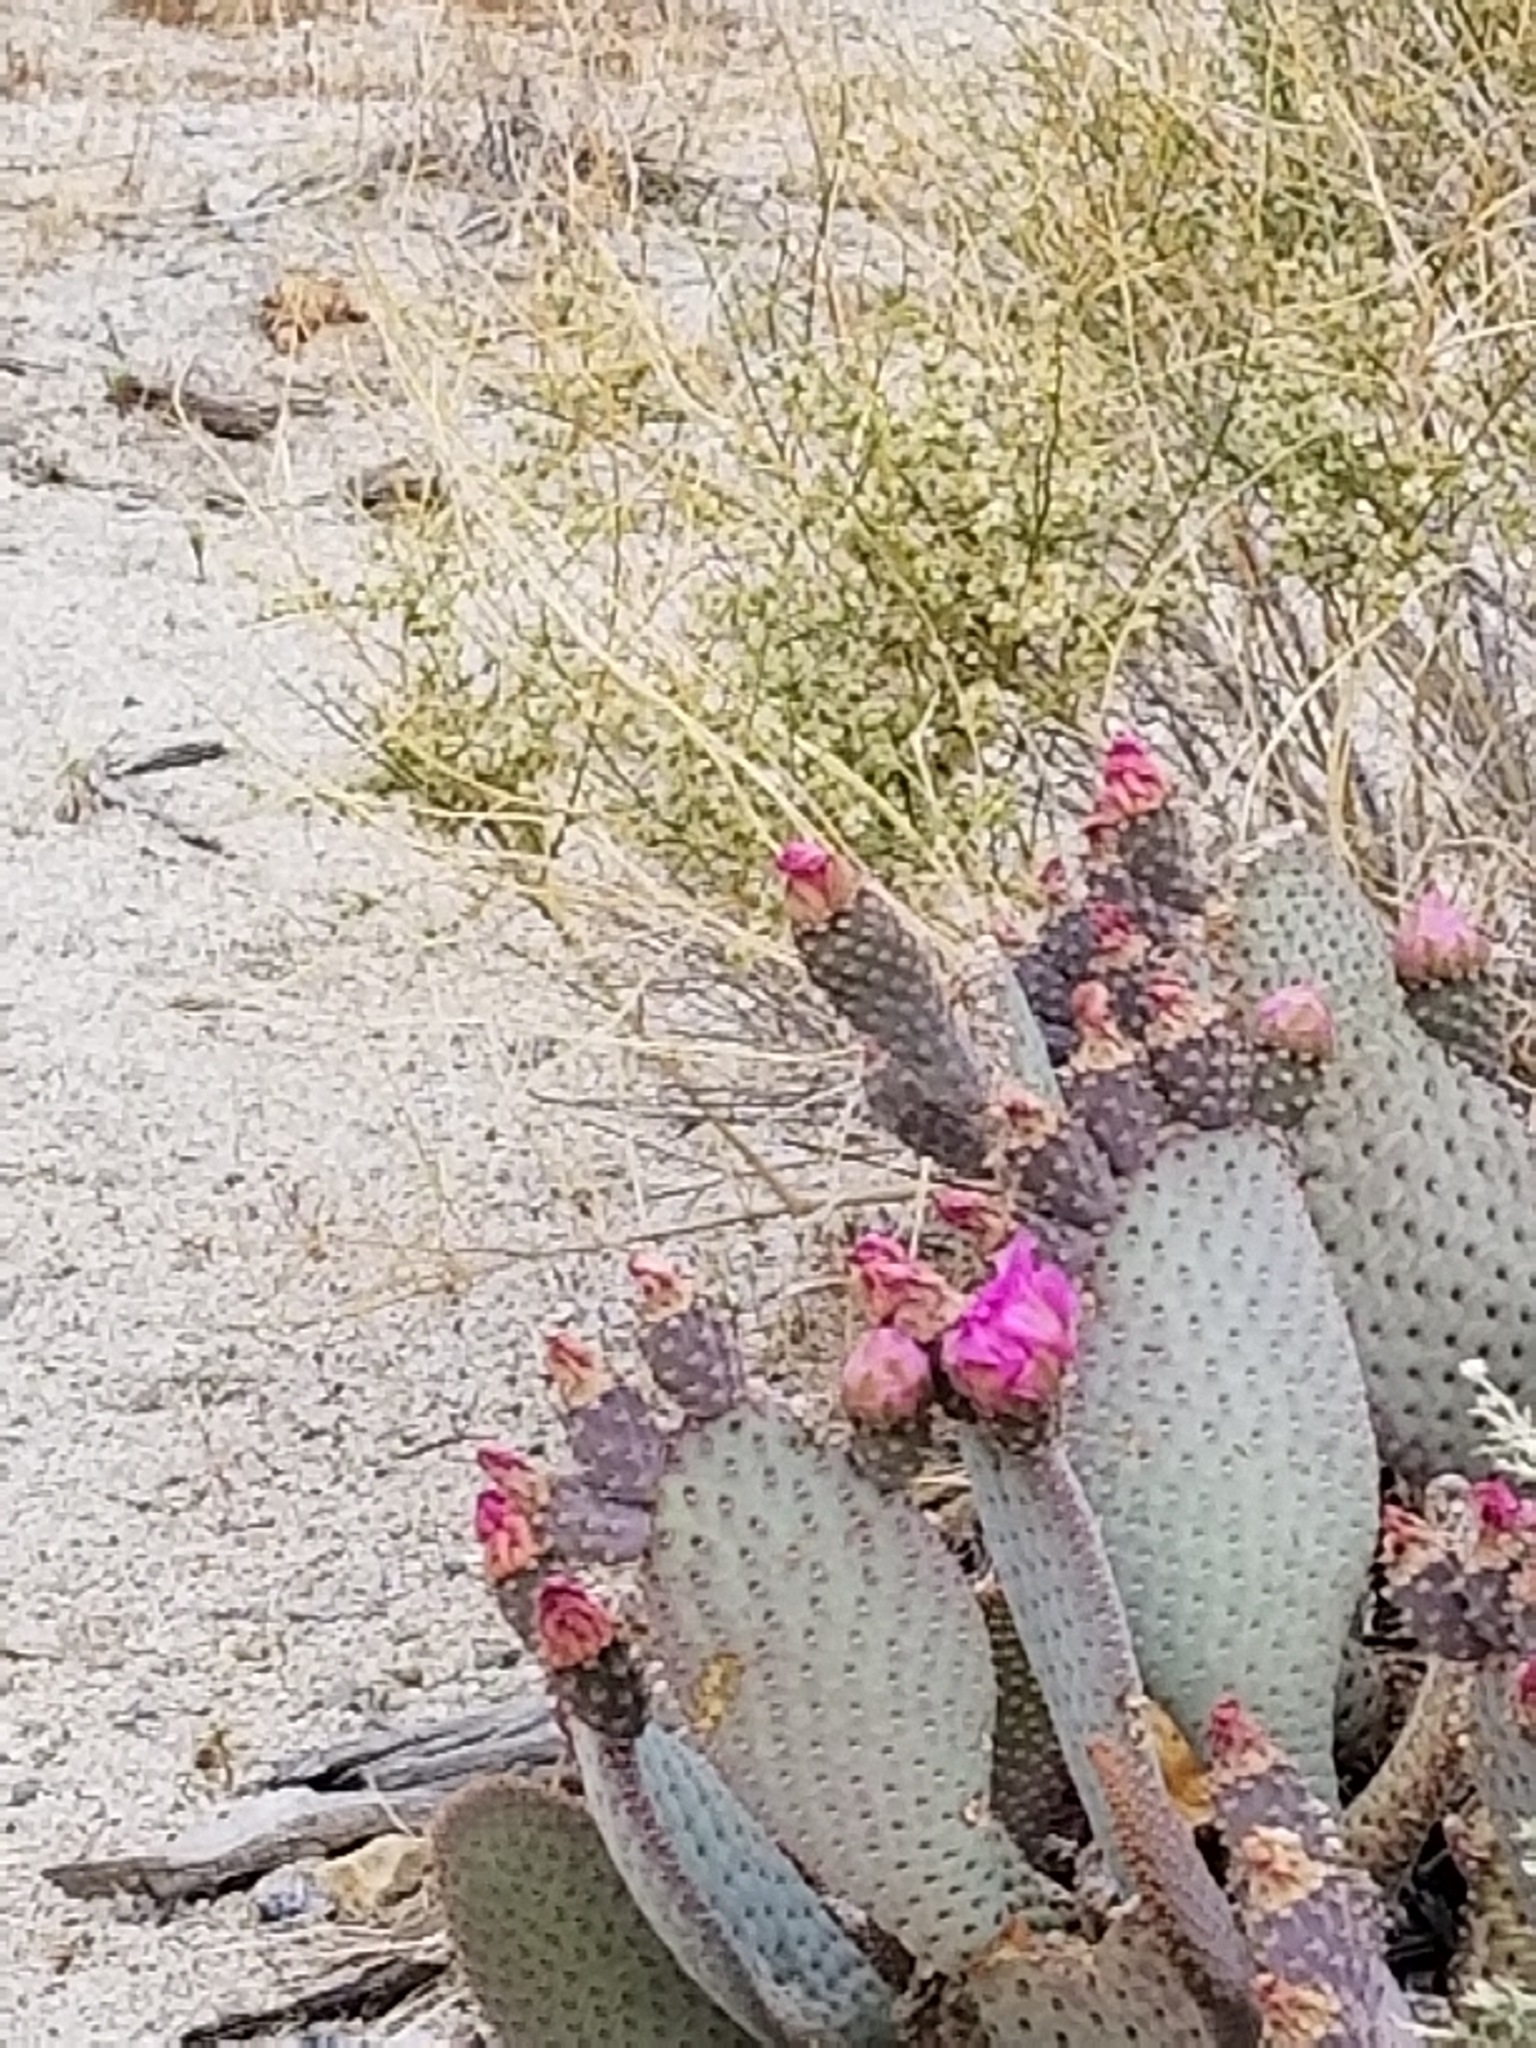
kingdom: Plantae
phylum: Tracheophyta
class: Magnoliopsida
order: Caryophyllales
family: Cactaceae
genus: Opuntia
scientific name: Opuntia basilaris
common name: Beavertail prickly-pear
